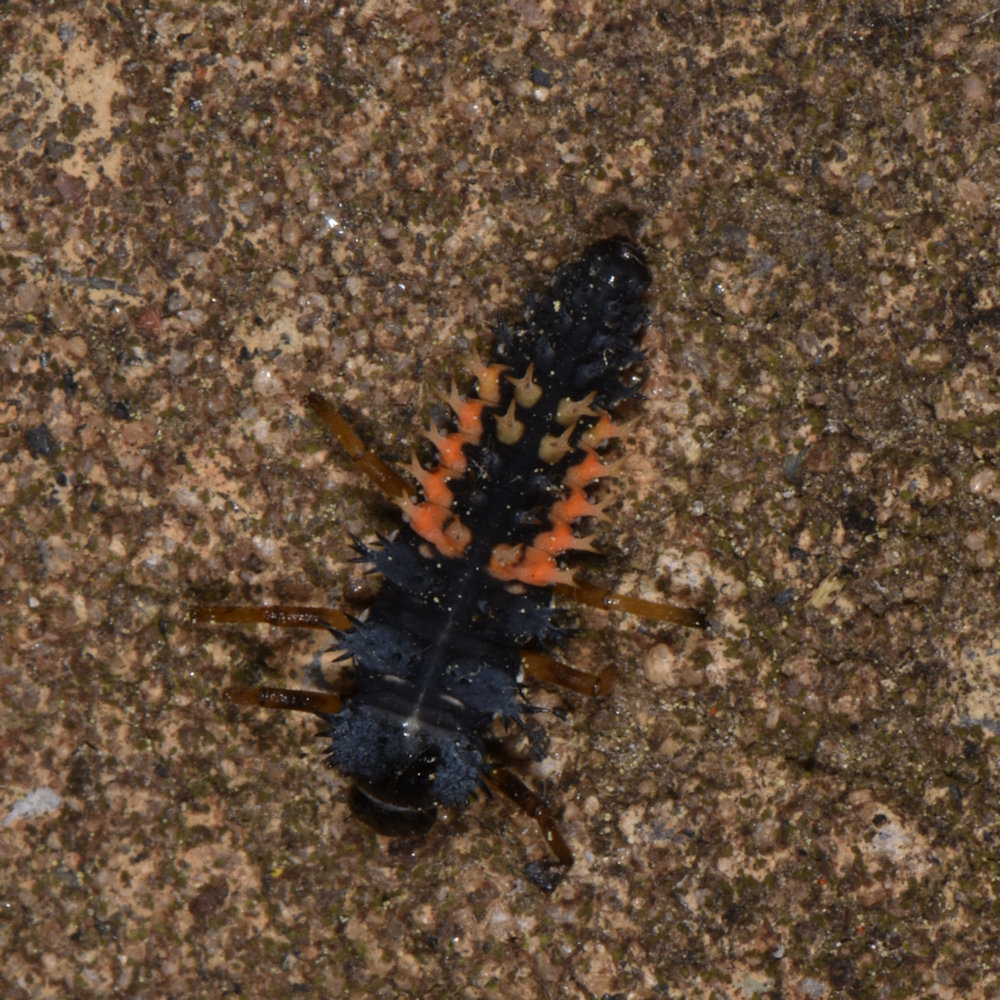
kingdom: Animalia
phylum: Arthropoda
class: Insecta
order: Coleoptera
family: Coccinellidae
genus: Harmonia
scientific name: Harmonia axyridis
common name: Harlequin ladybird
